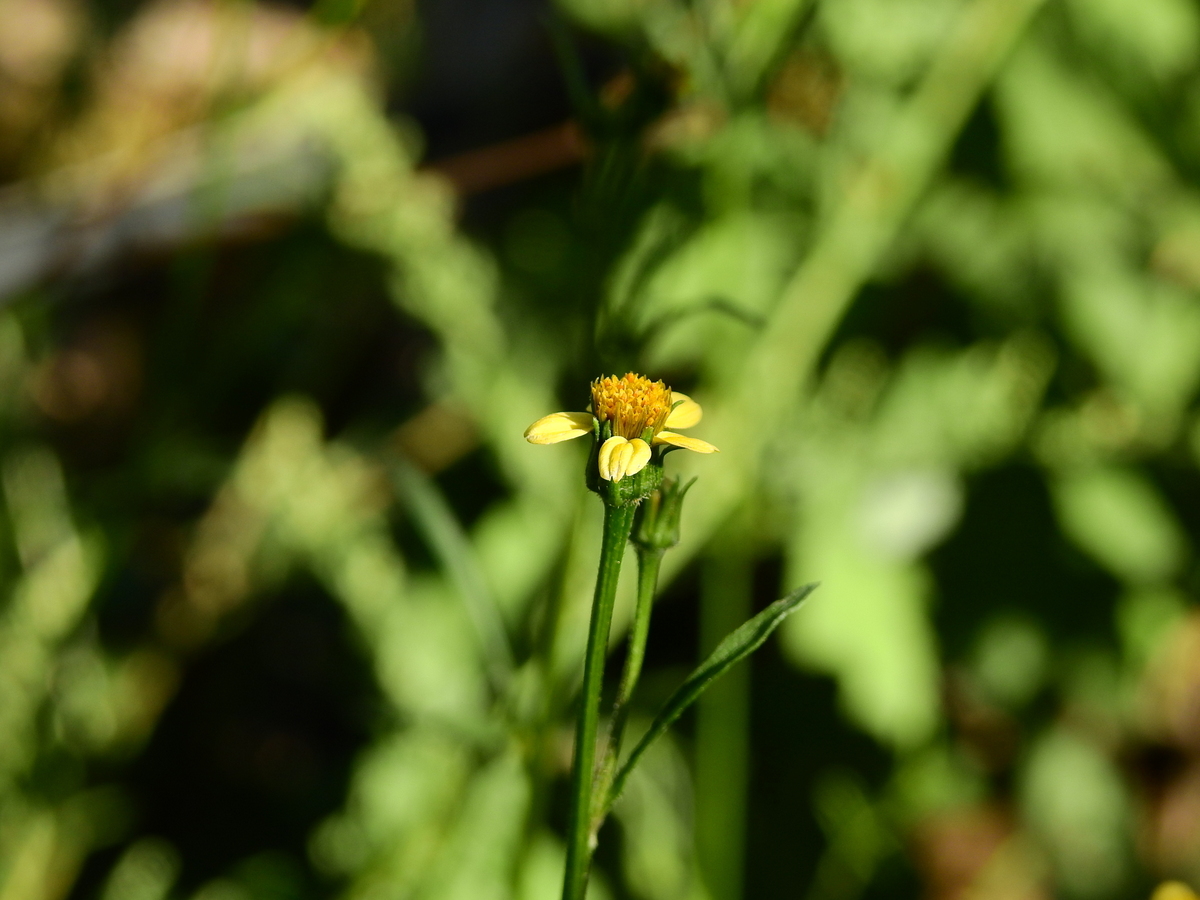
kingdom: Plantae
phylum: Tracheophyta
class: Magnoliopsida
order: Asterales
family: Asteraceae
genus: Bidens
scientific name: Bidens subalternans
